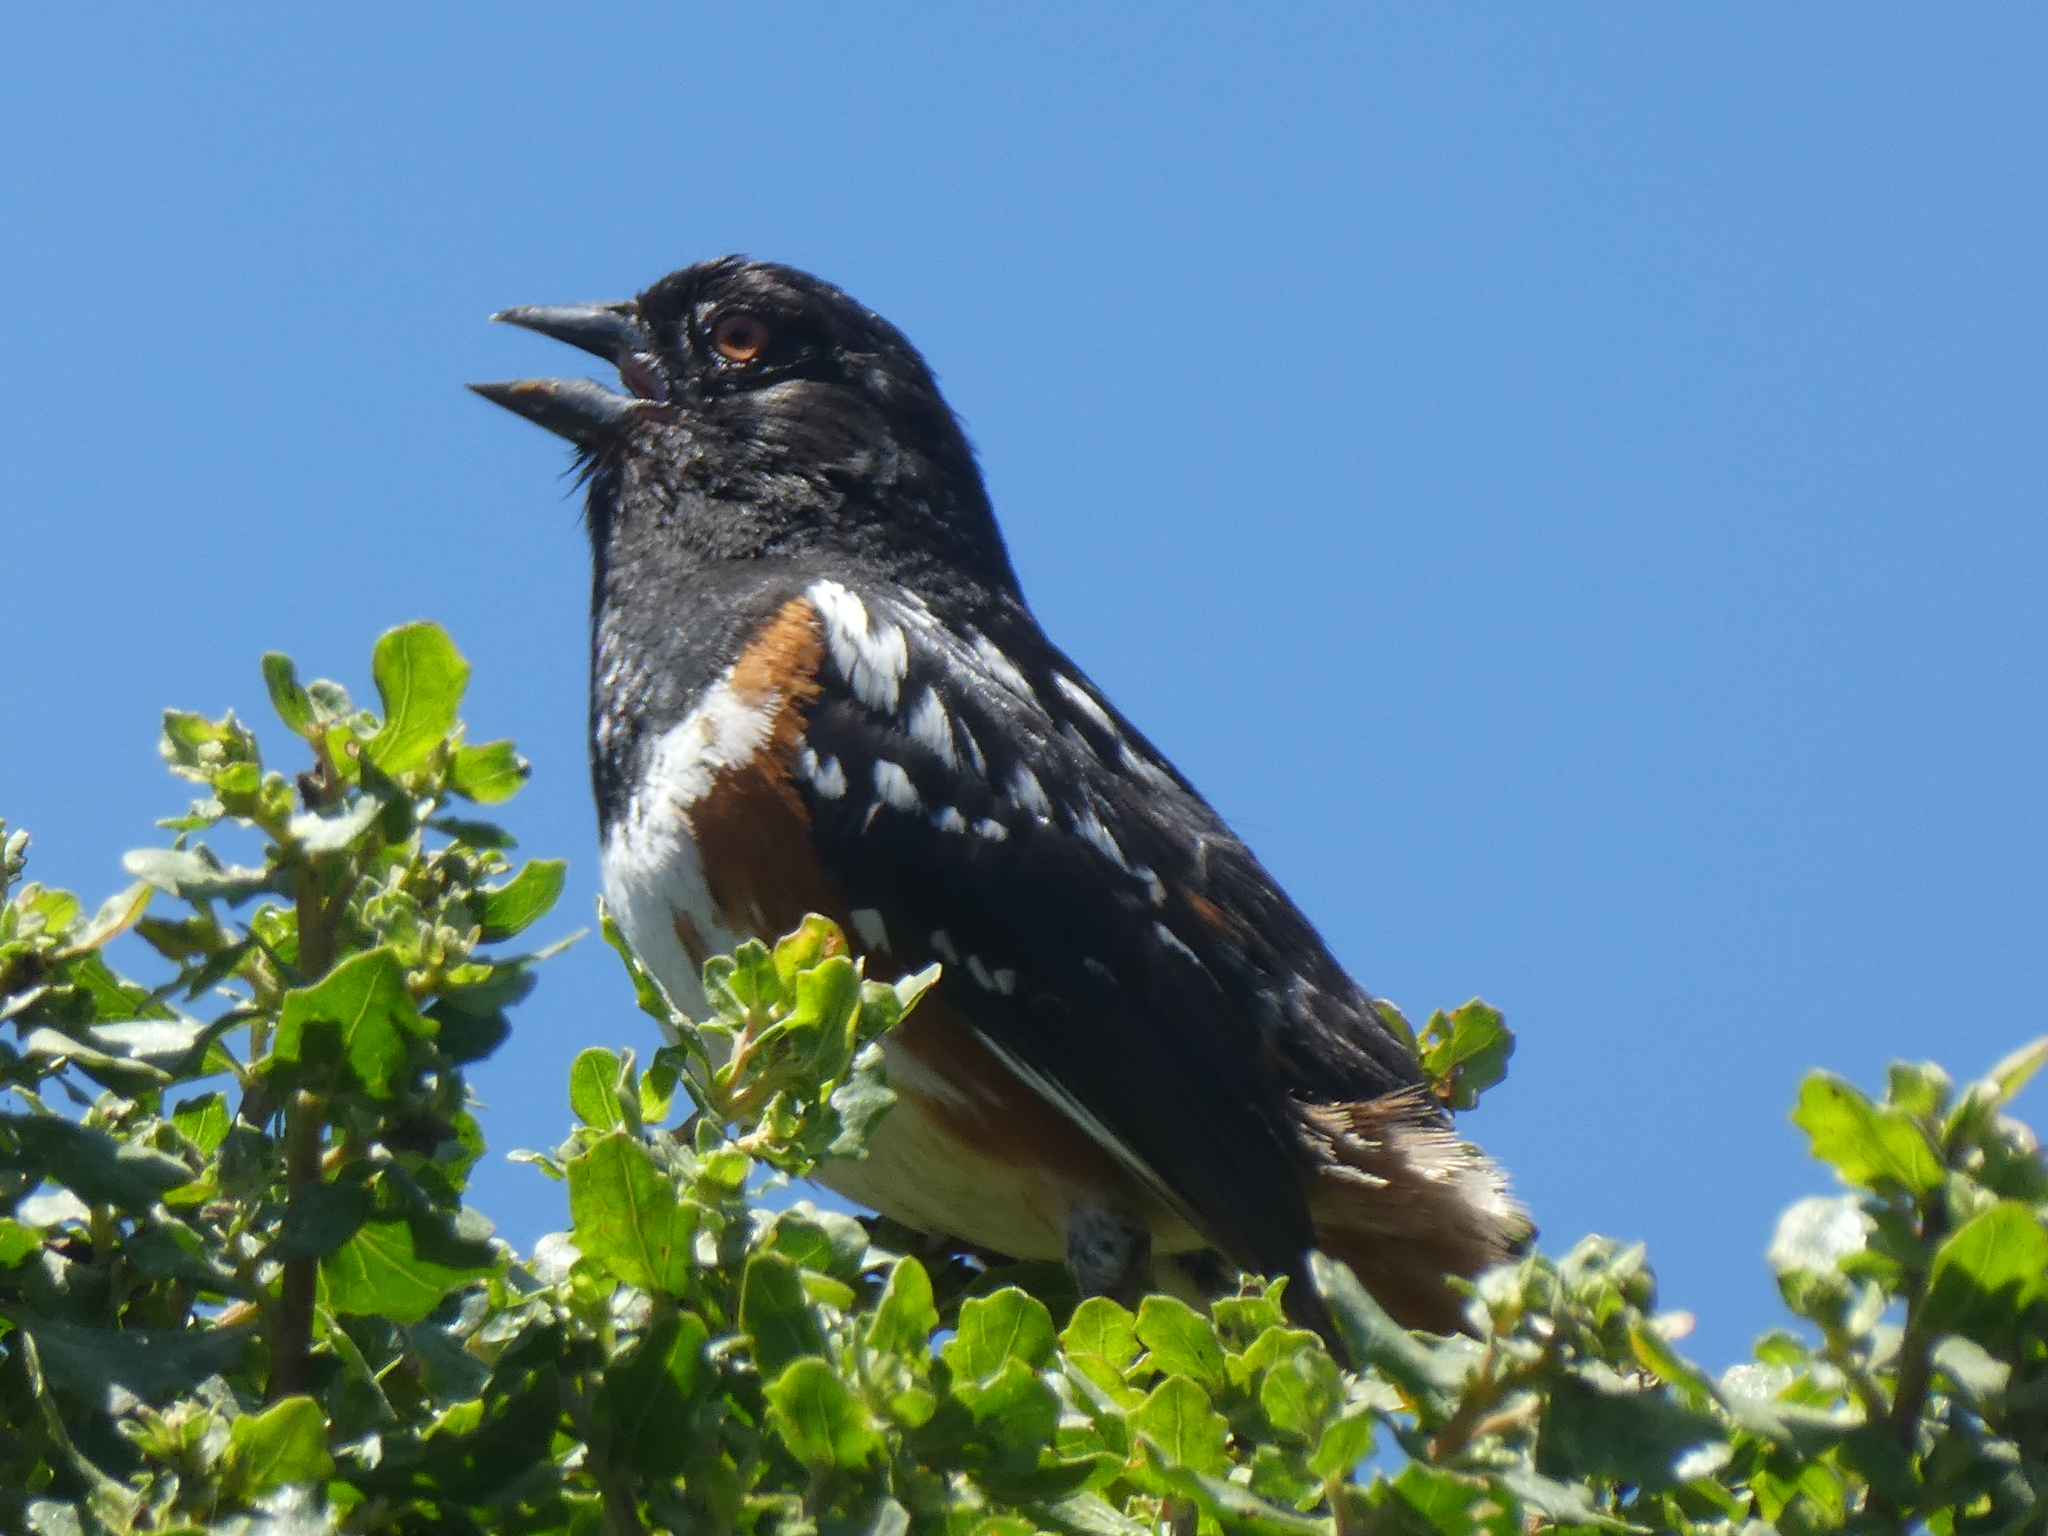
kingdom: Animalia
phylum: Chordata
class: Aves
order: Passeriformes
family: Passerellidae
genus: Pipilo
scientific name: Pipilo maculatus
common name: Spotted towhee
